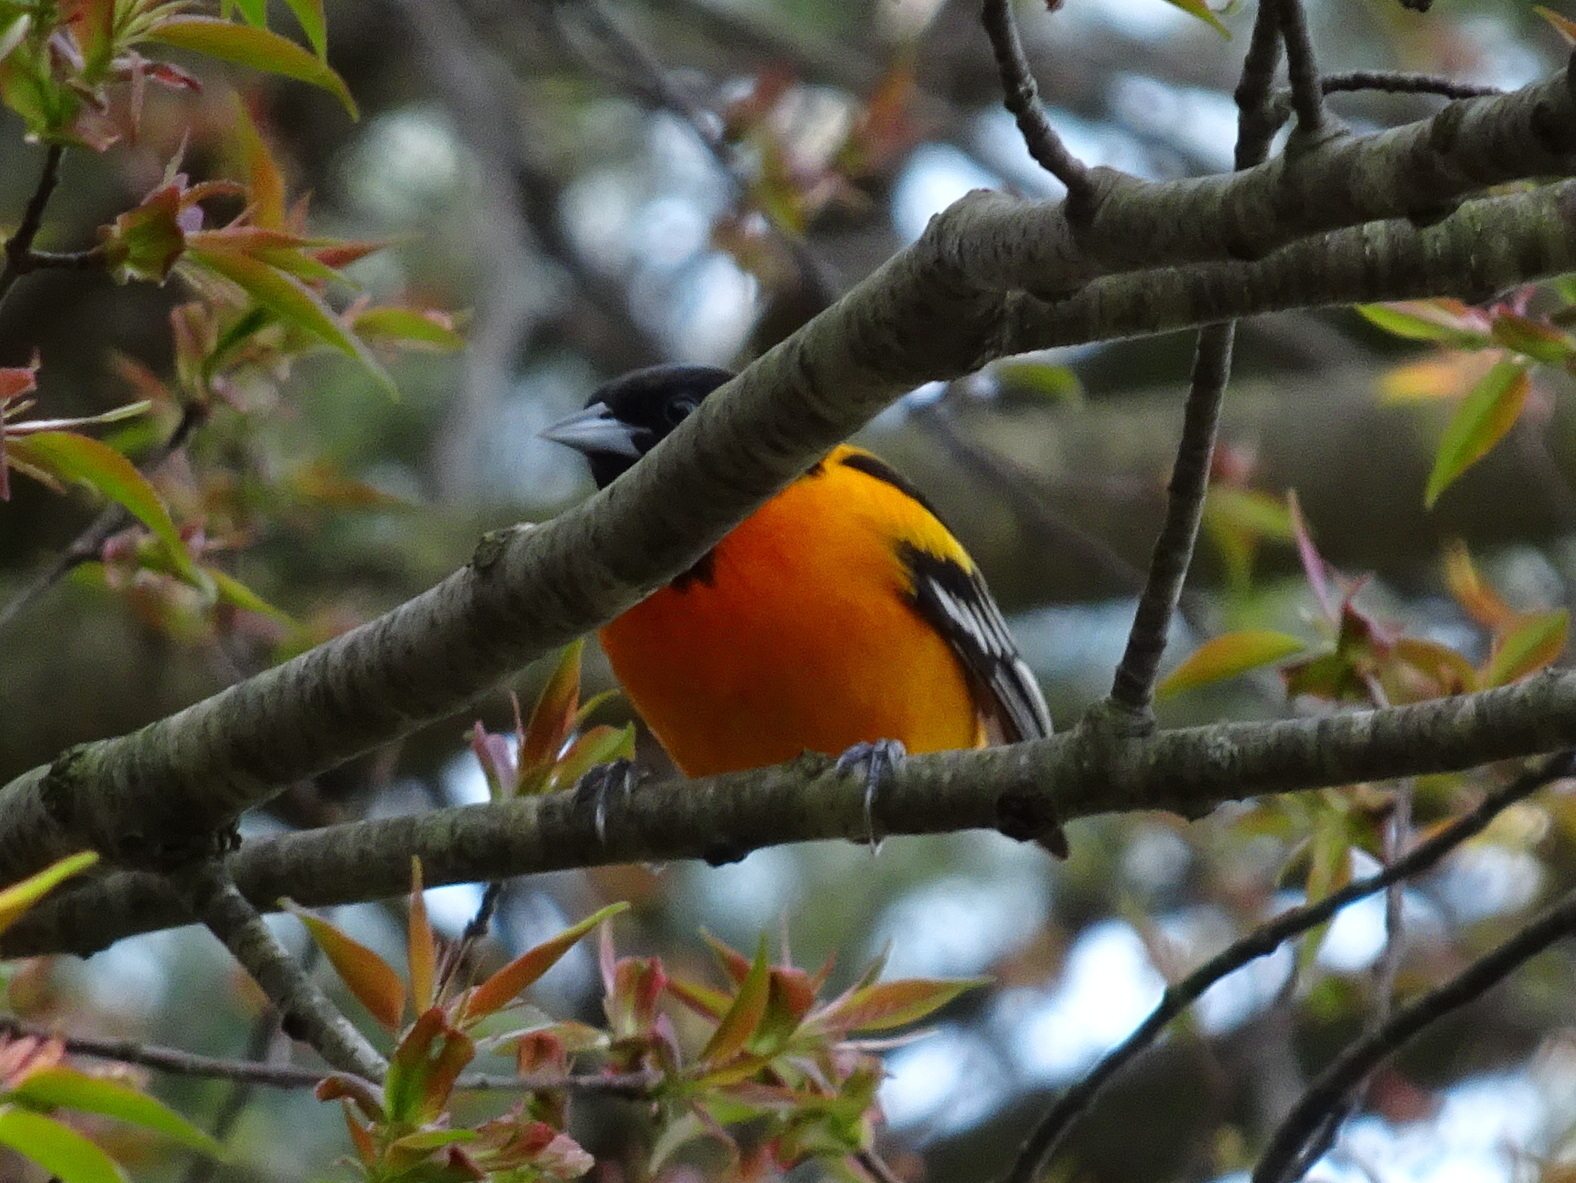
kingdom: Animalia
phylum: Chordata
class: Aves
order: Passeriformes
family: Icteridae
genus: Icterus
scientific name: Icterus galbula
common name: Baltimore oriole
